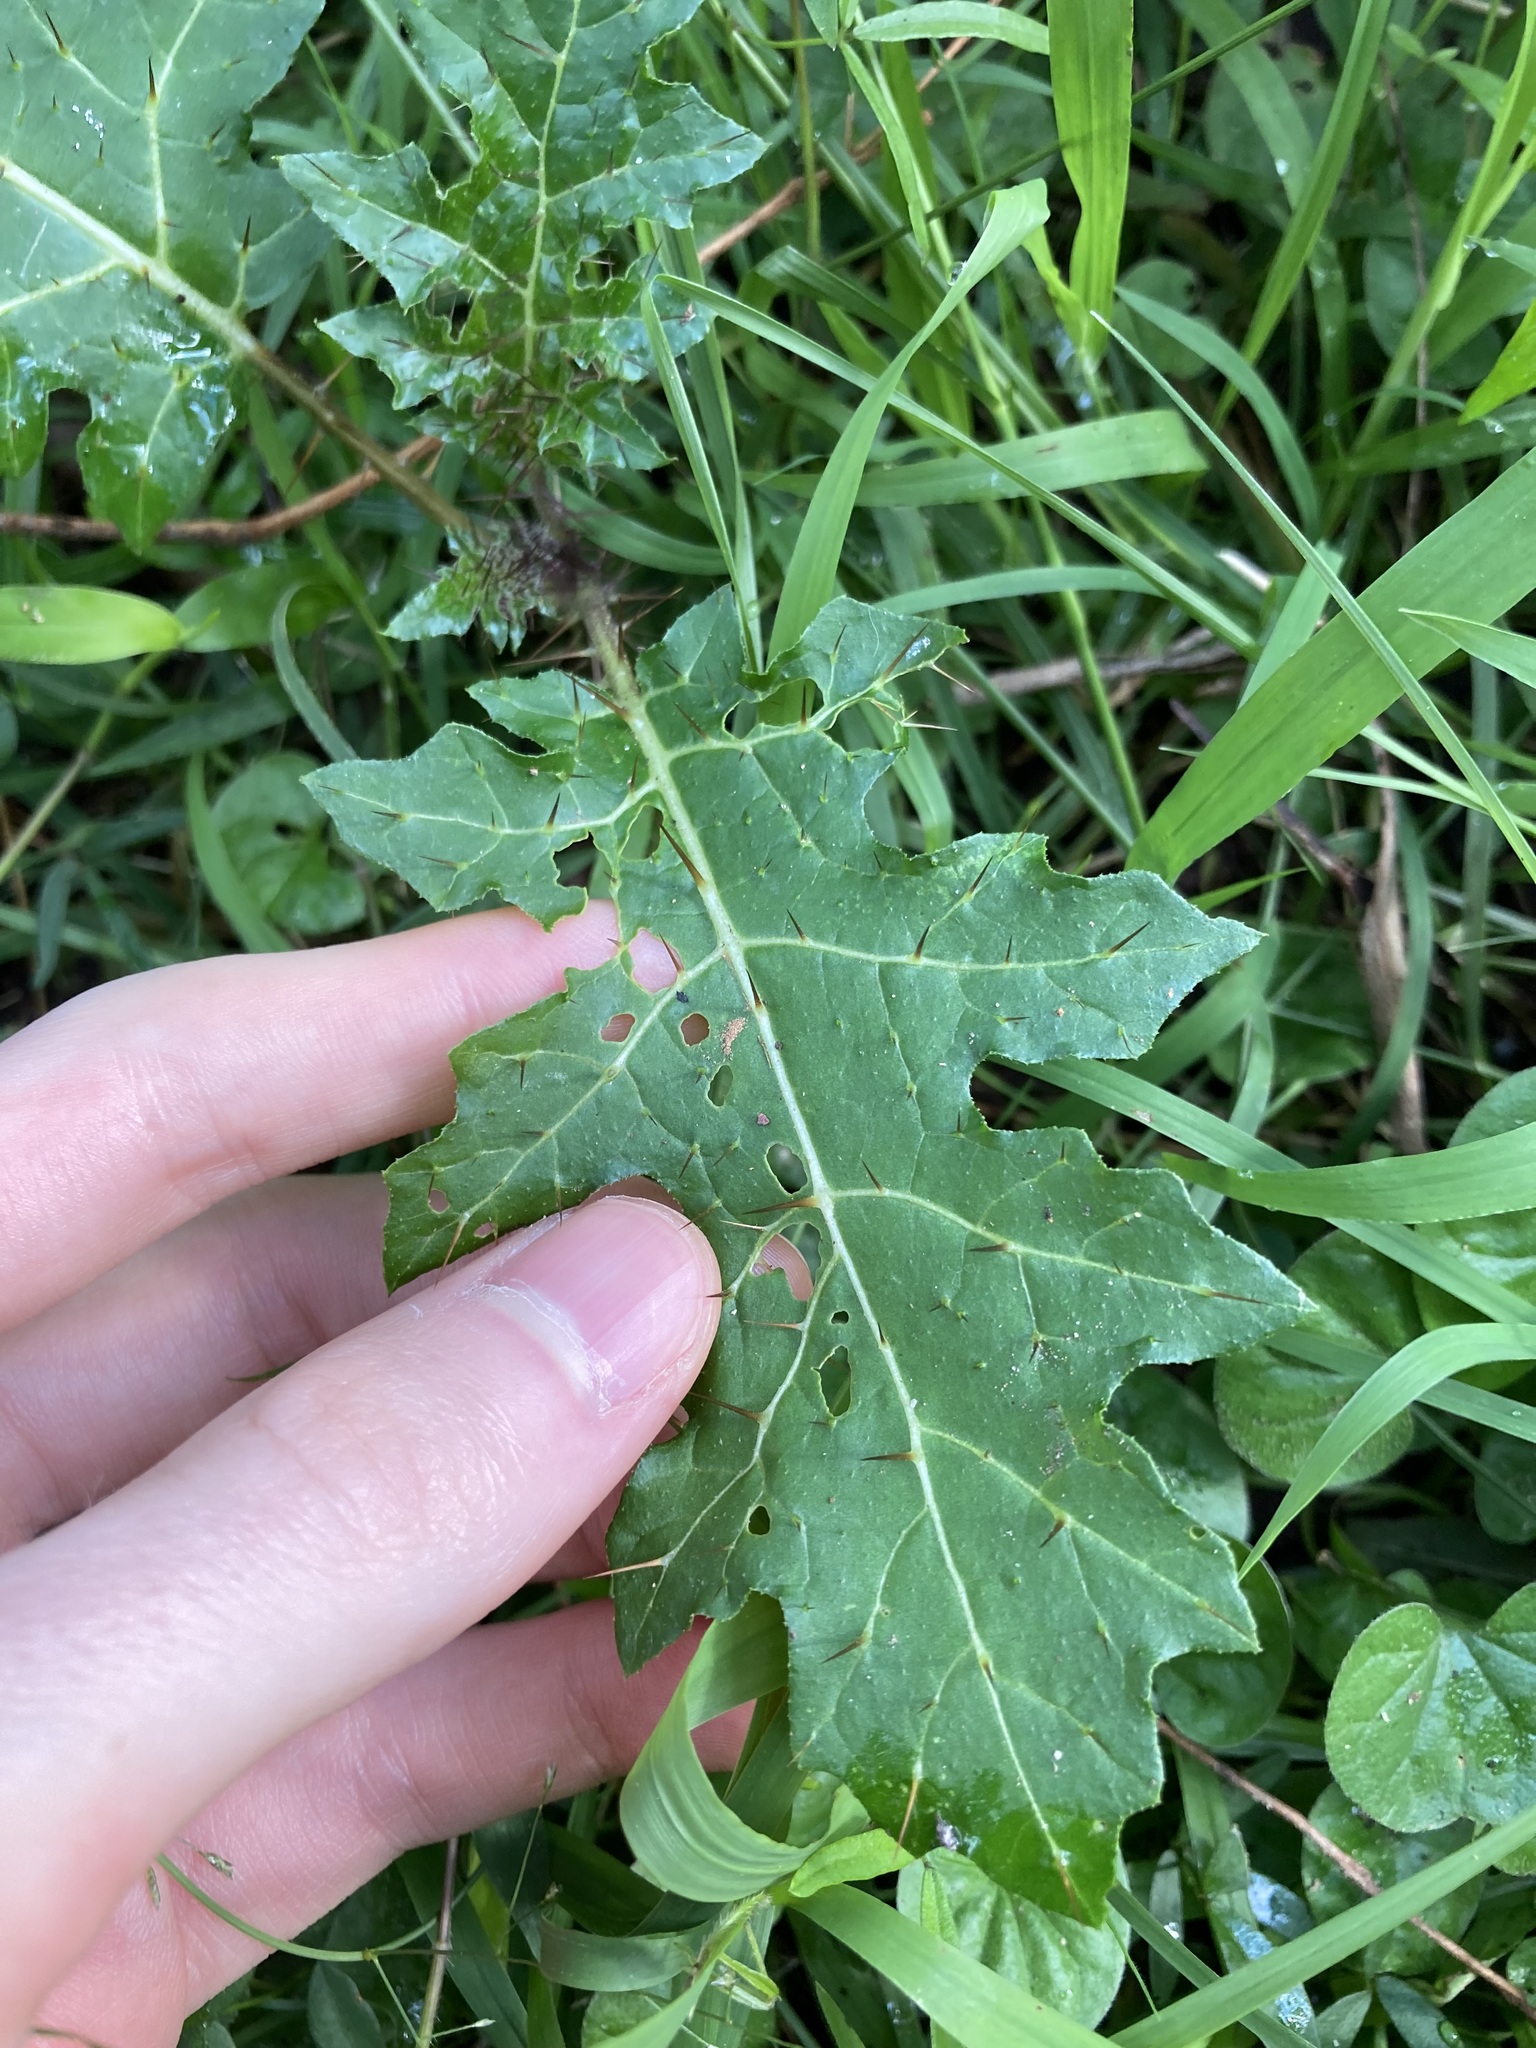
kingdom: Plantae
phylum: Tracheophyta
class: Magnoliopsida
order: Solanales
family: Solanaceae
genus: Solanum
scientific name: Solanum prinophyllum
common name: Forest nightshade
